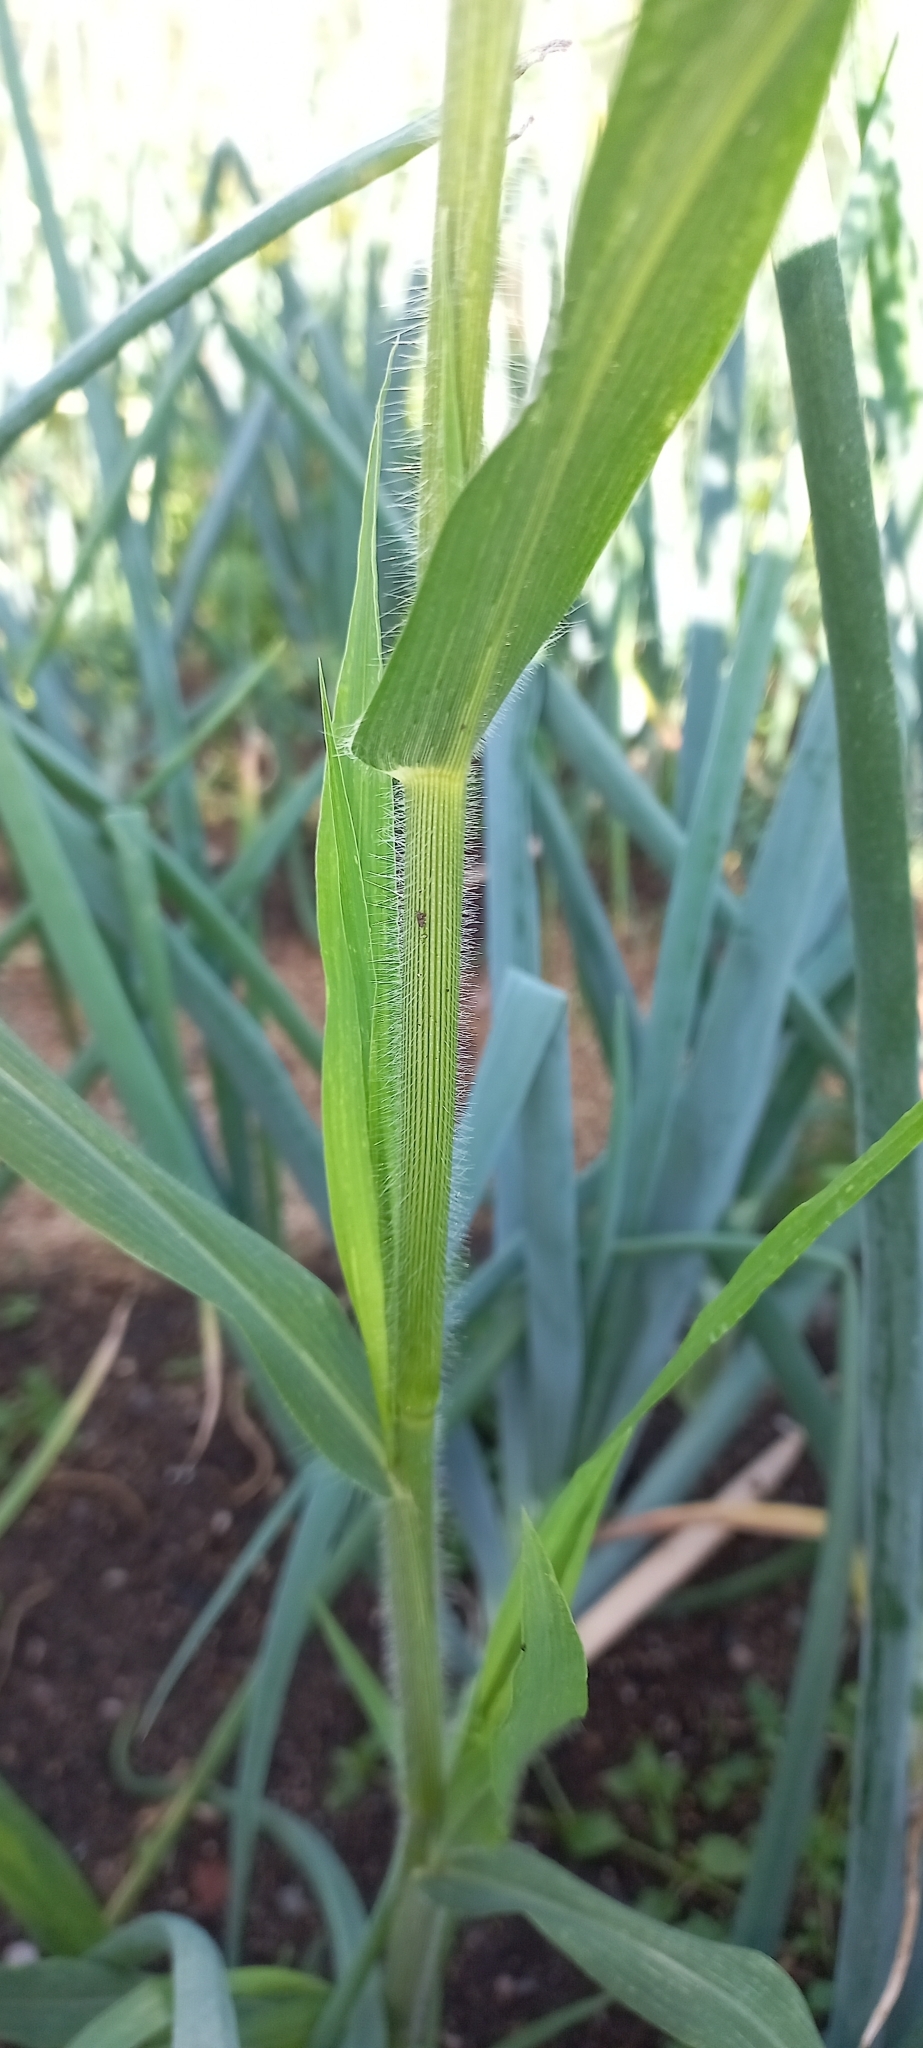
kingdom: Plantae
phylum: Tracheophyta
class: Liliopsida
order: Poales
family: Poaceae
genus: Panicum
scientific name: Panicum miliaceum
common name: Common millet
